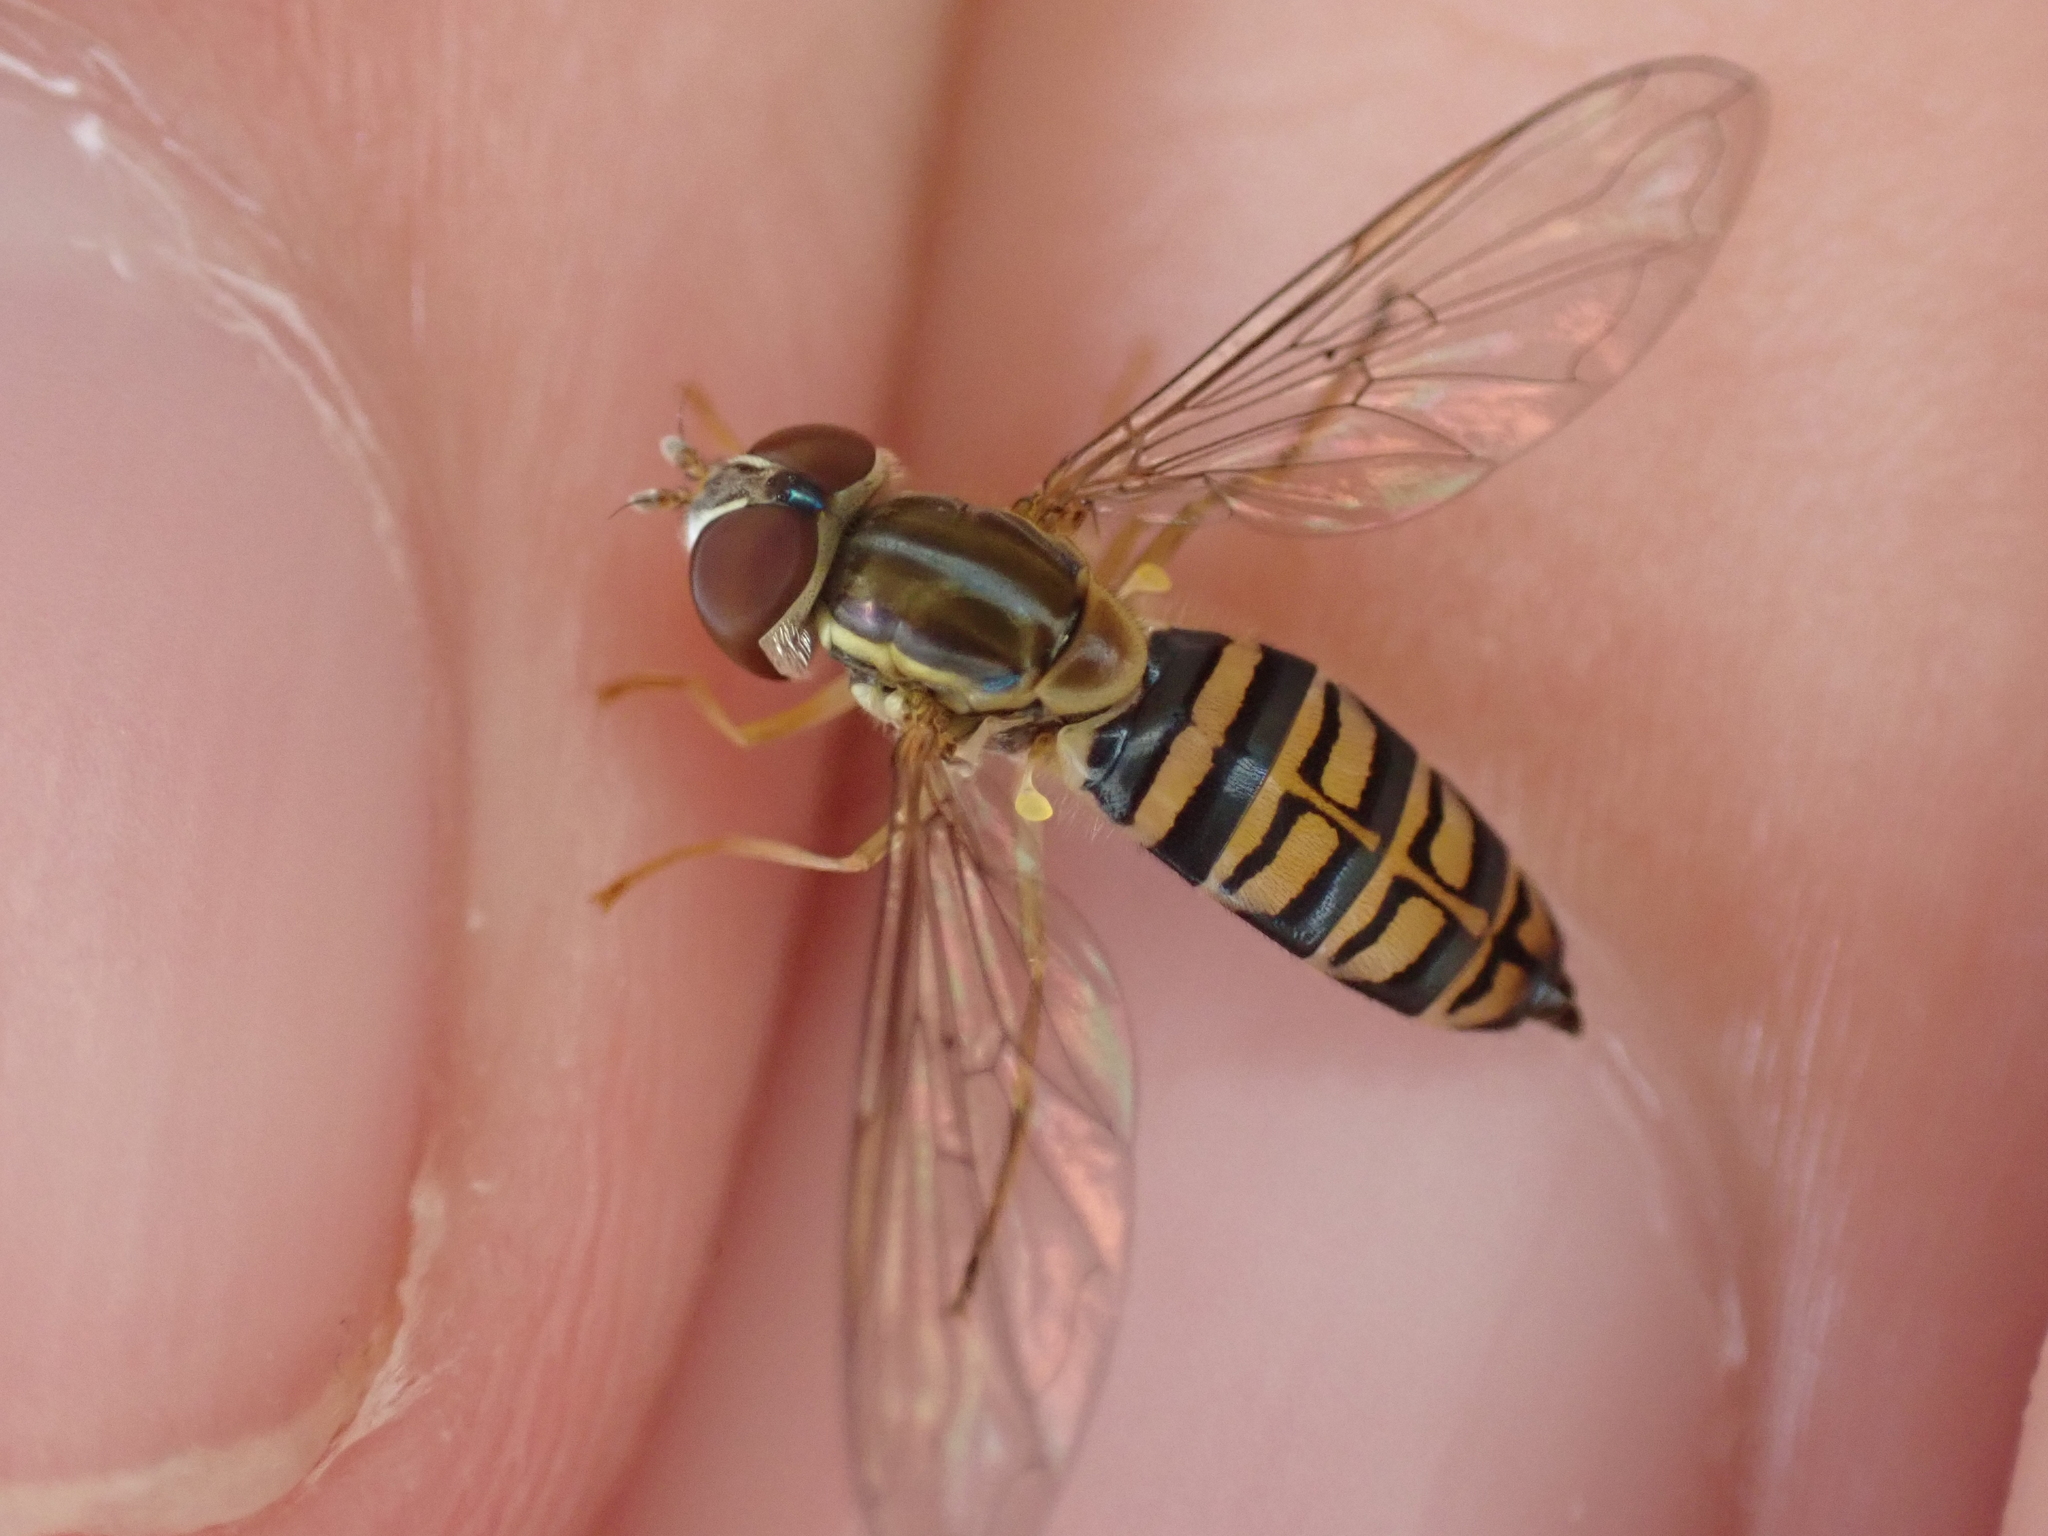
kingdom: Animalia
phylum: Arthropoda
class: Insecta
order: Diptera
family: Syrphidae
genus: Toxomerus
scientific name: Toxomerus politus
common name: Maize calligrapher
